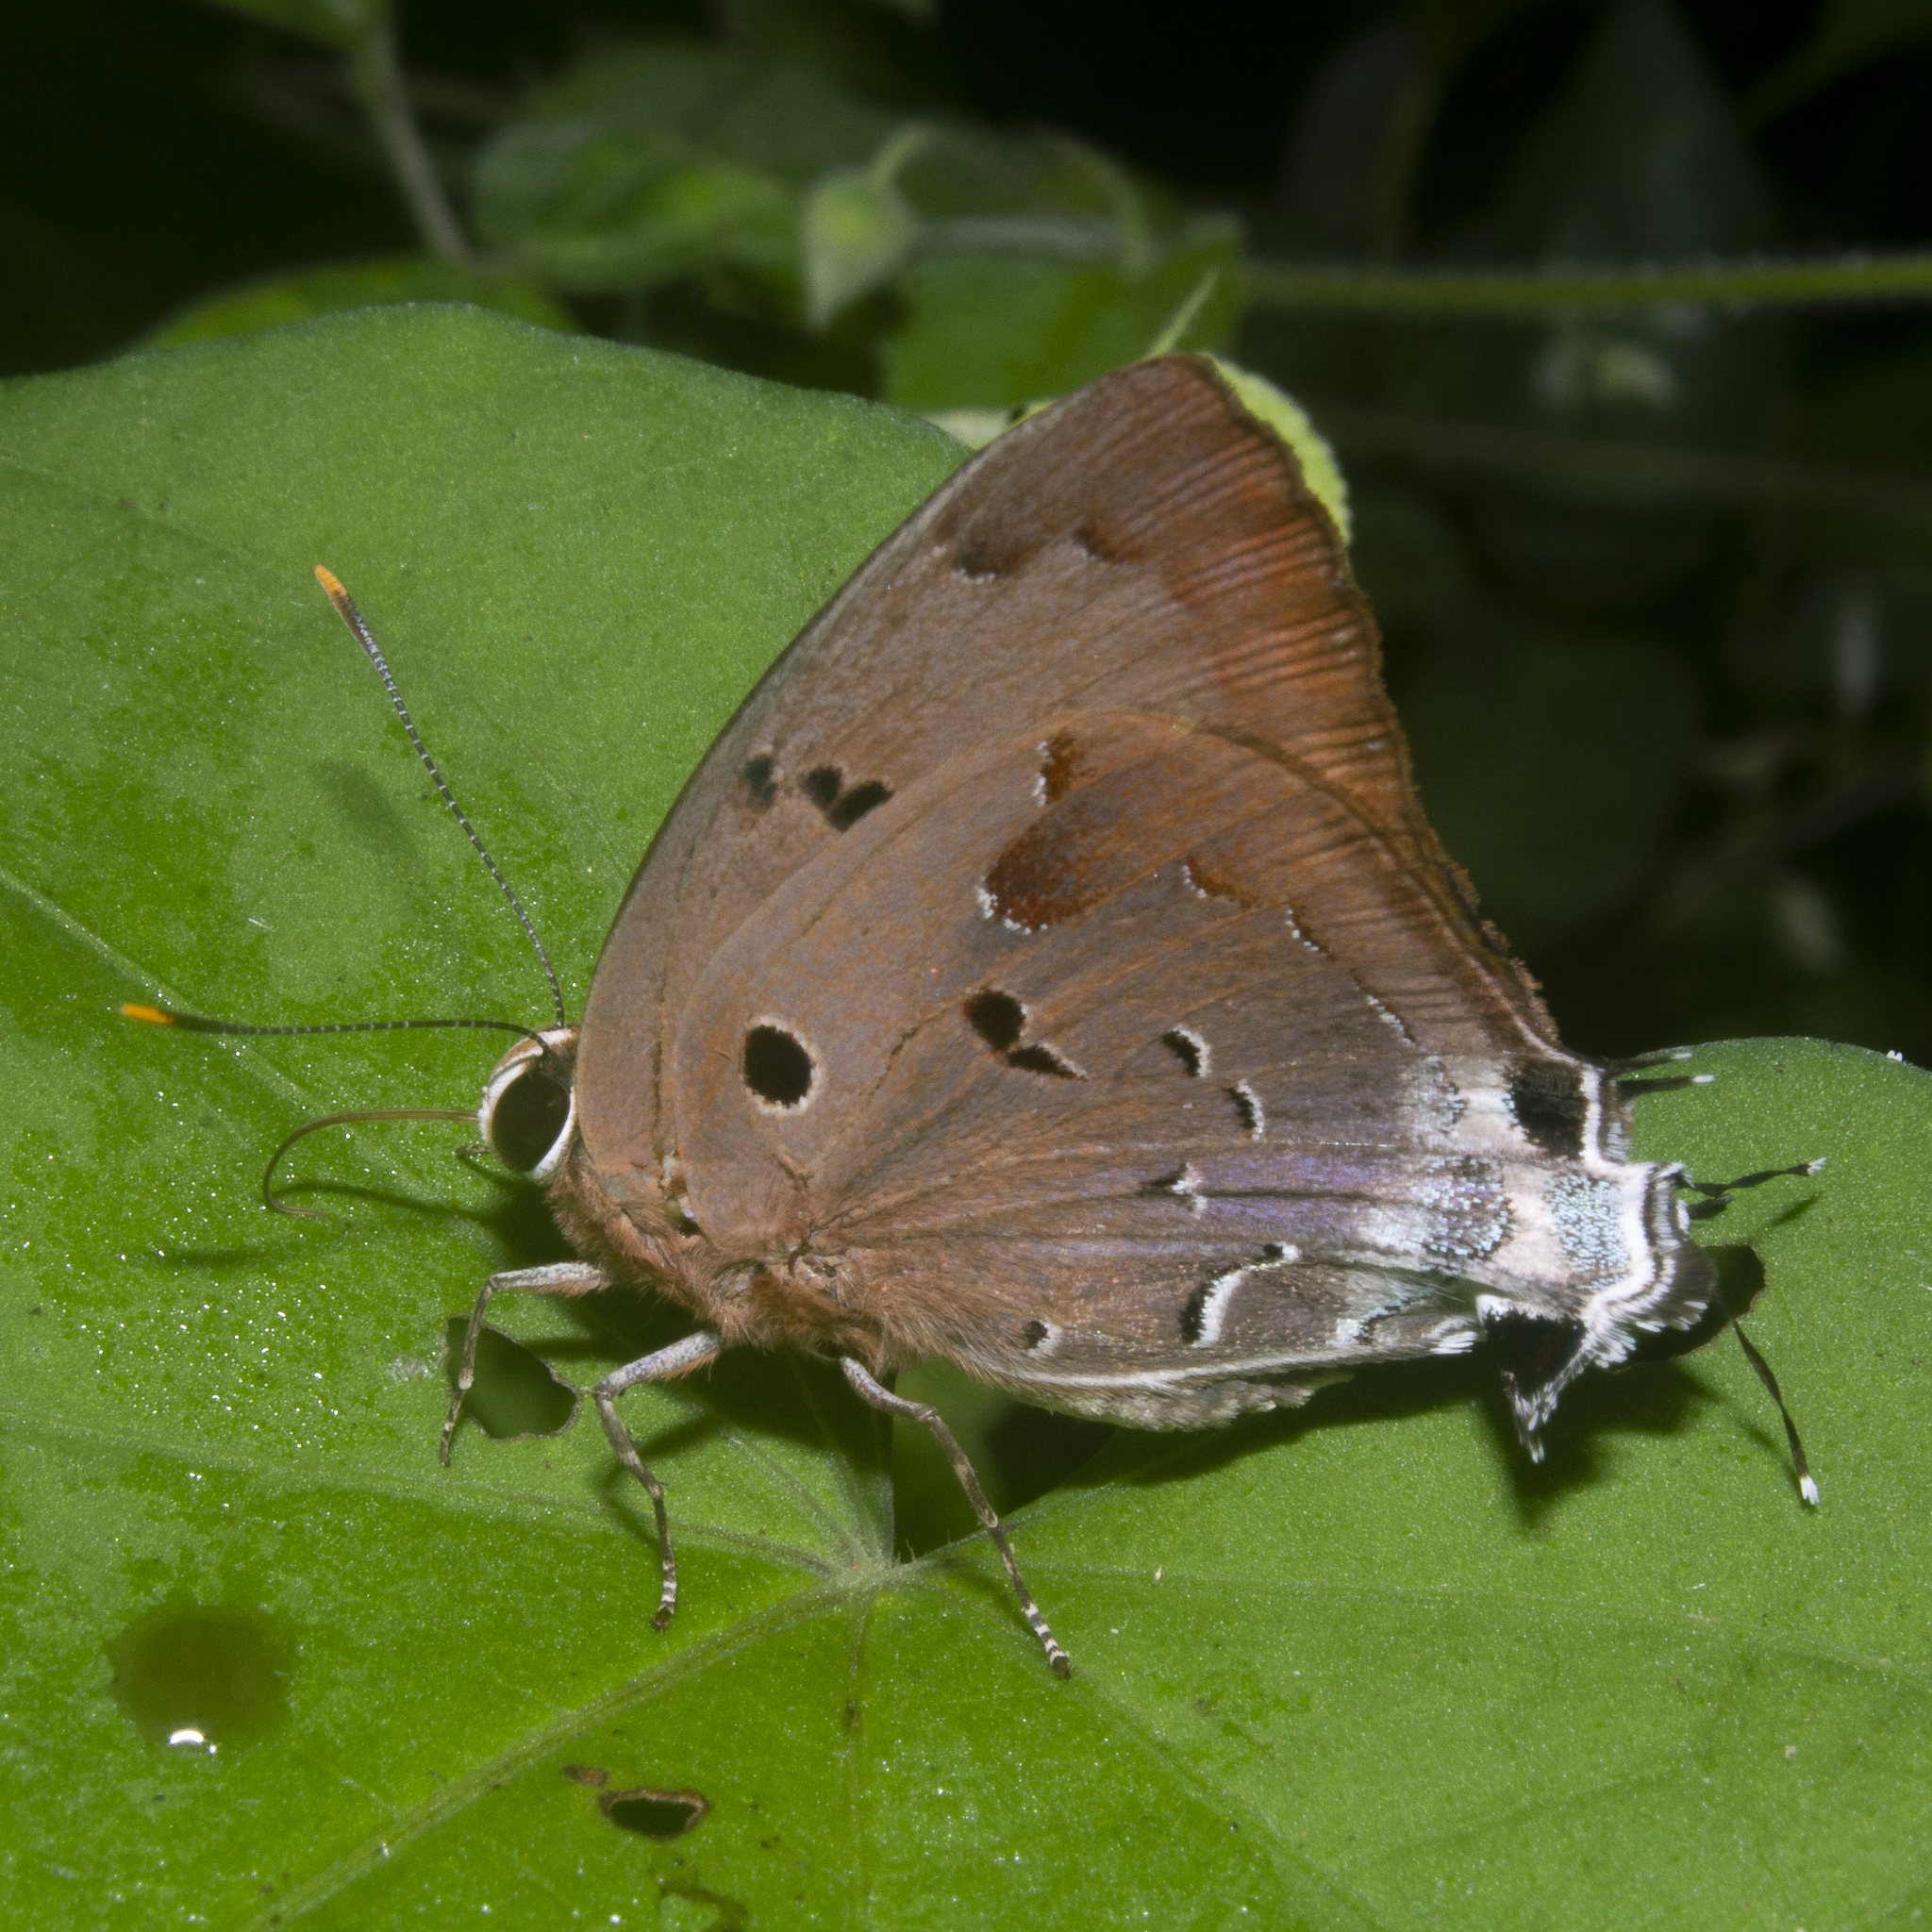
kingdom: Animalia
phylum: Arthropoda
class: Insecta
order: Lepidoptera
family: Lycaenidae
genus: Thecla
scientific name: Thecla rustan
